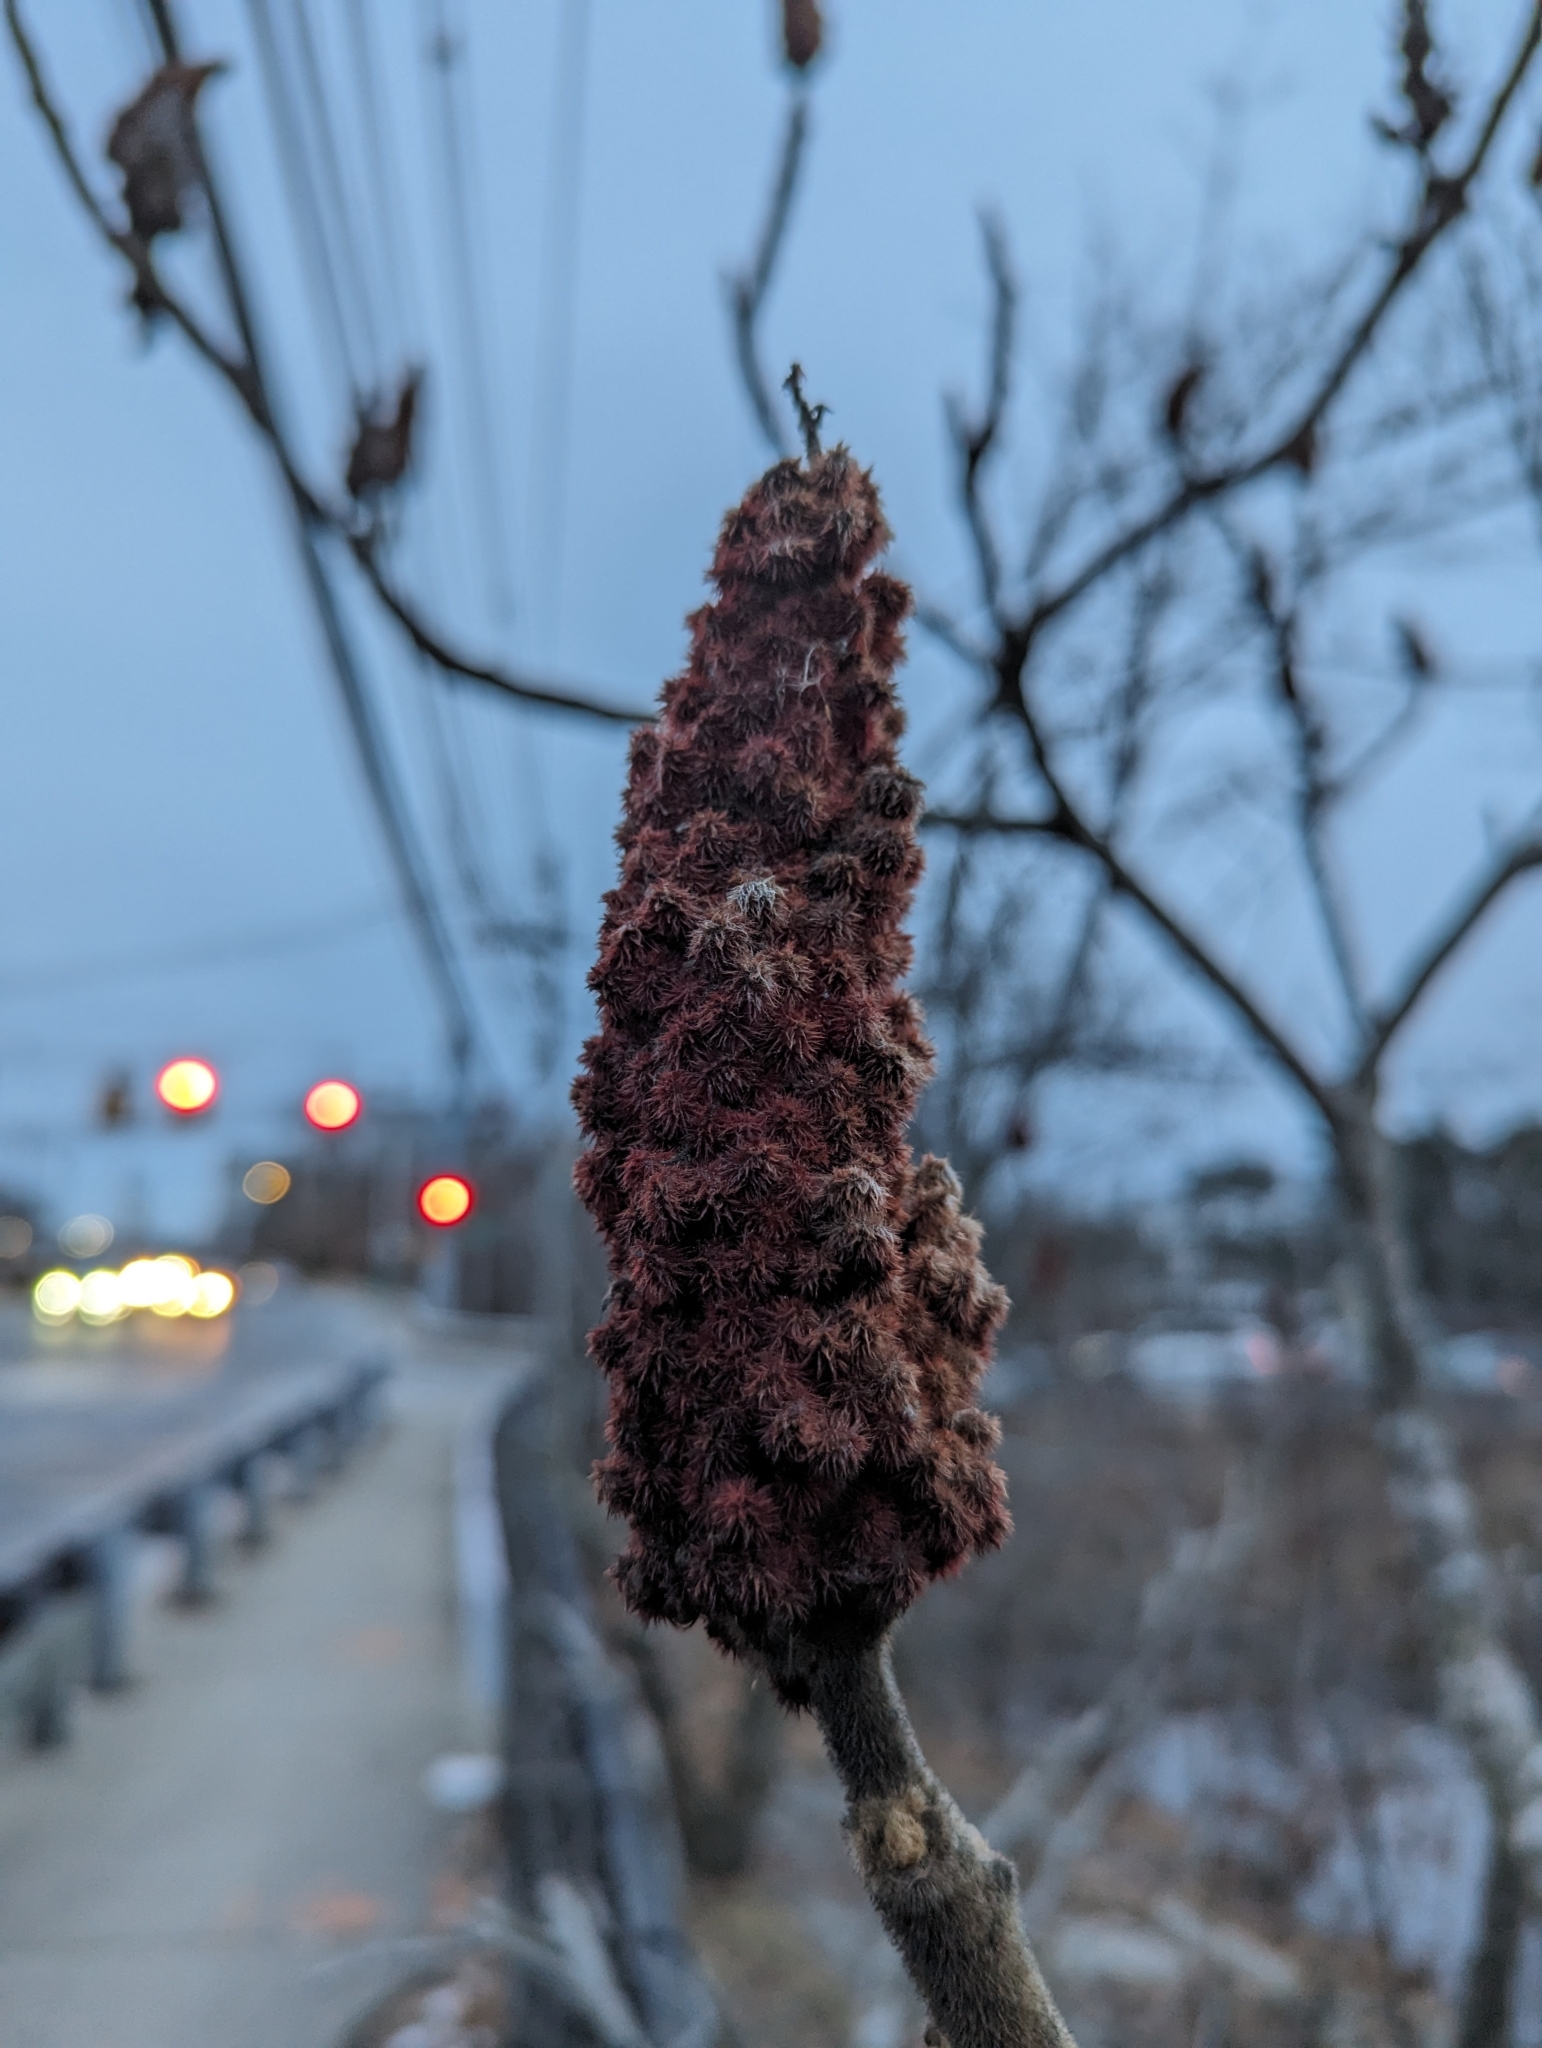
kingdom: Plantae
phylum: Tracheophyta
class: Magnoliopsida
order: Sapindales
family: Anacardiaceae
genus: Rhus
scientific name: Rhus typhina
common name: Staghorn sumac
